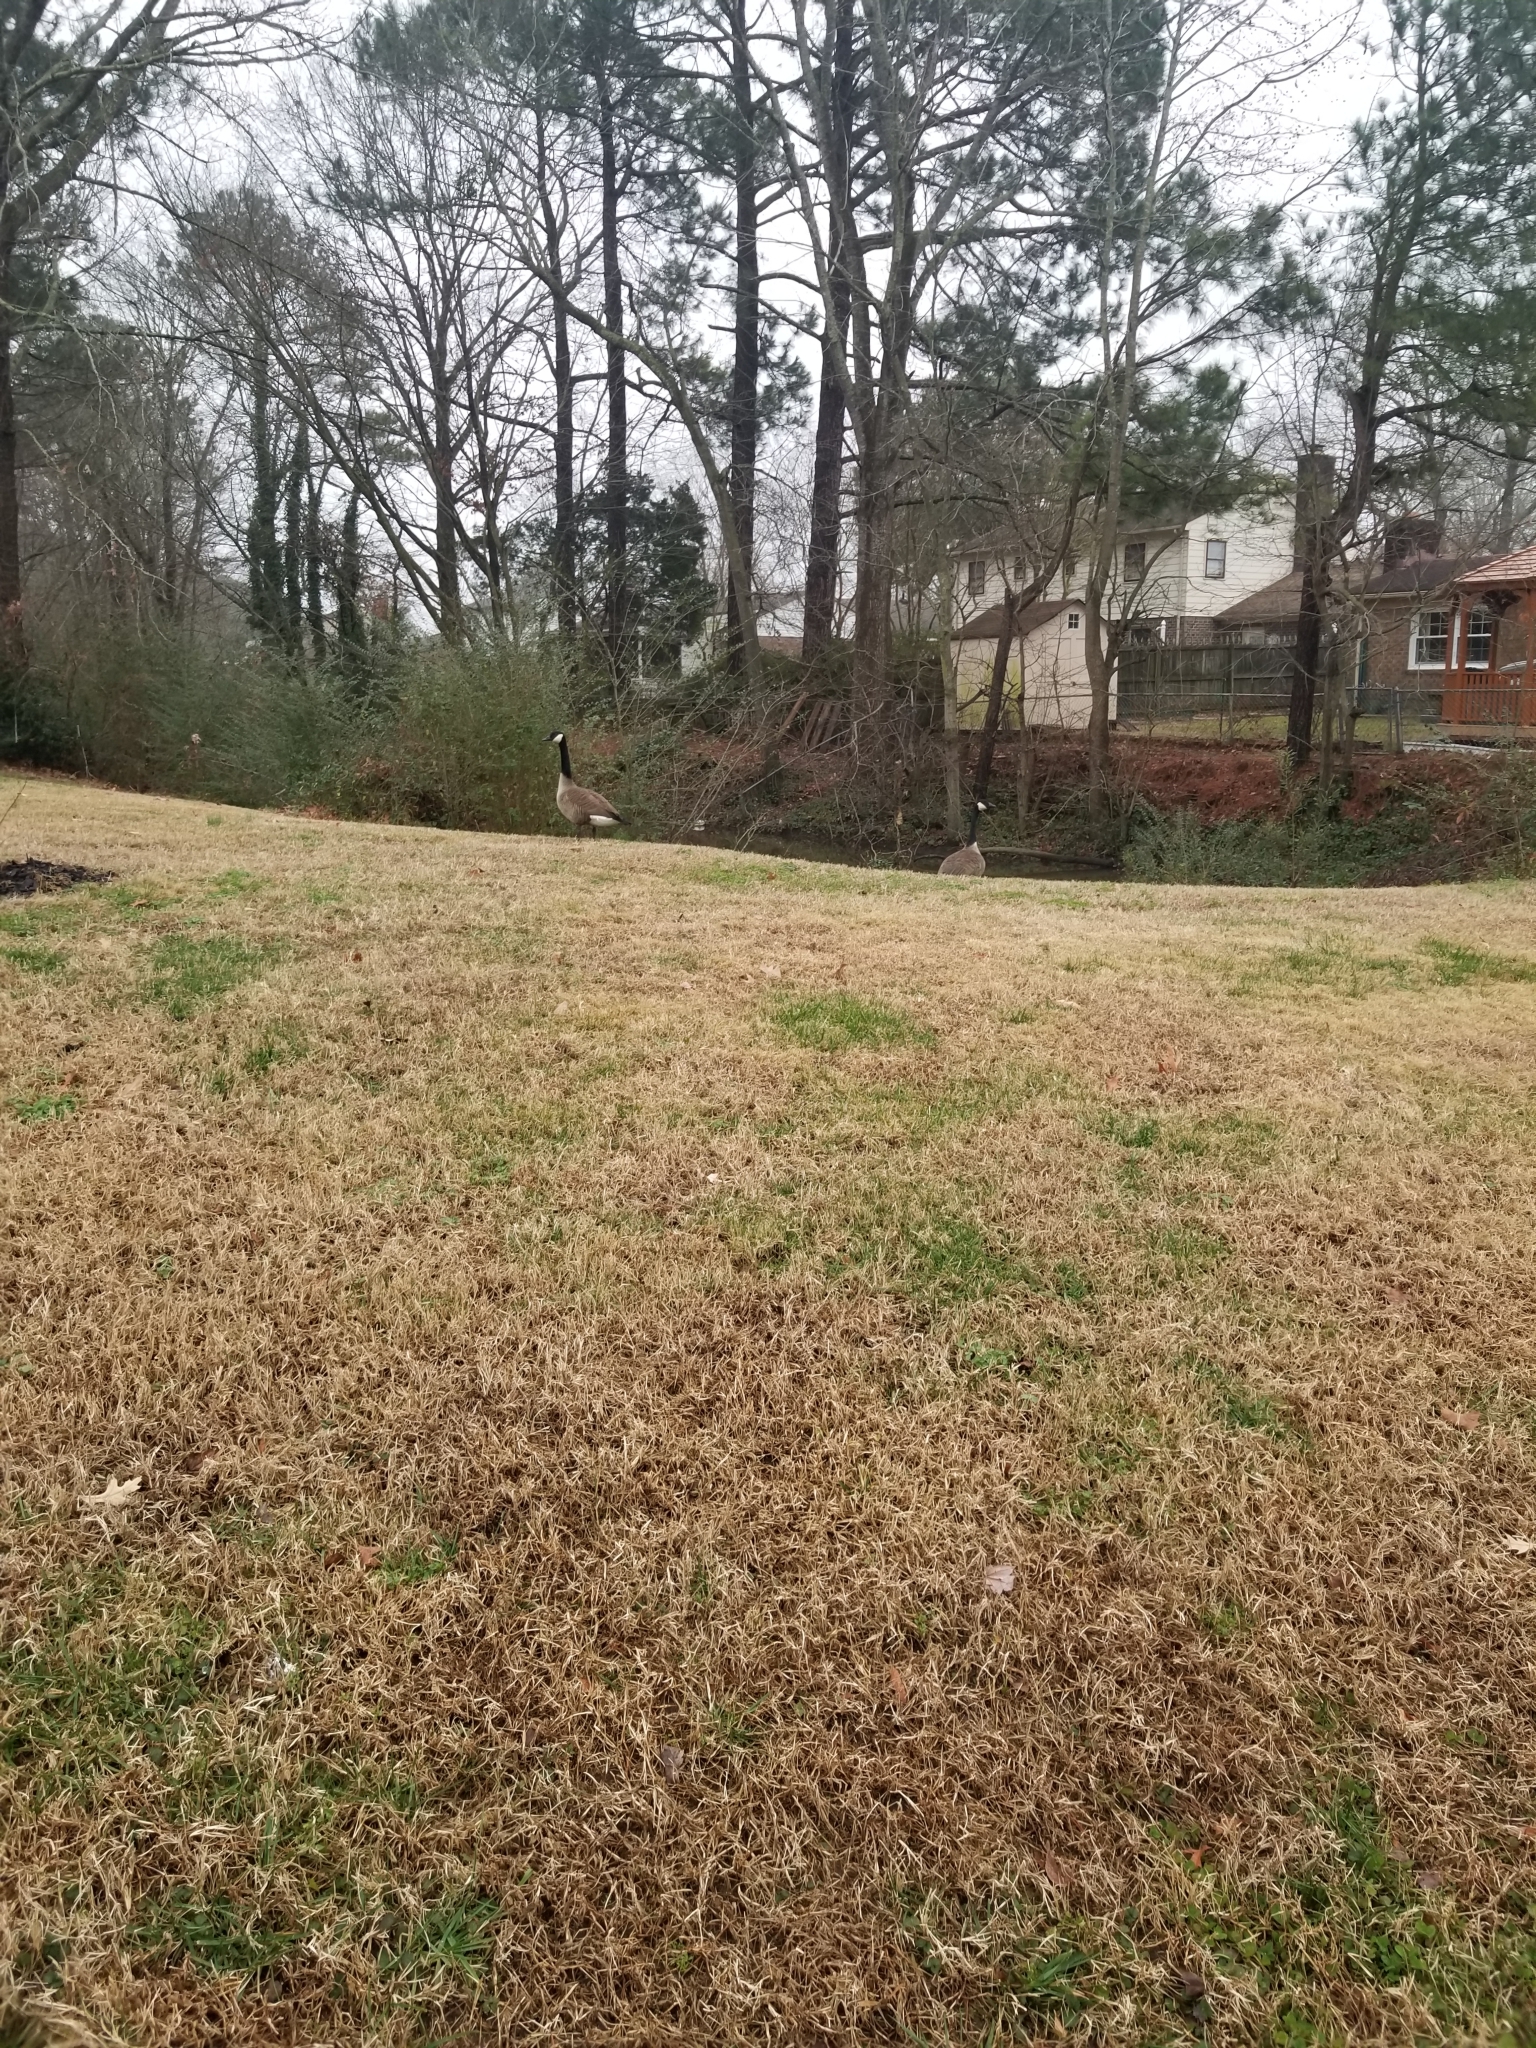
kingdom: Animalia
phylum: Chordata
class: Aves
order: Anseriformes
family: Anatidae
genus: Branta
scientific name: Branta canadensis
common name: Canada goose
